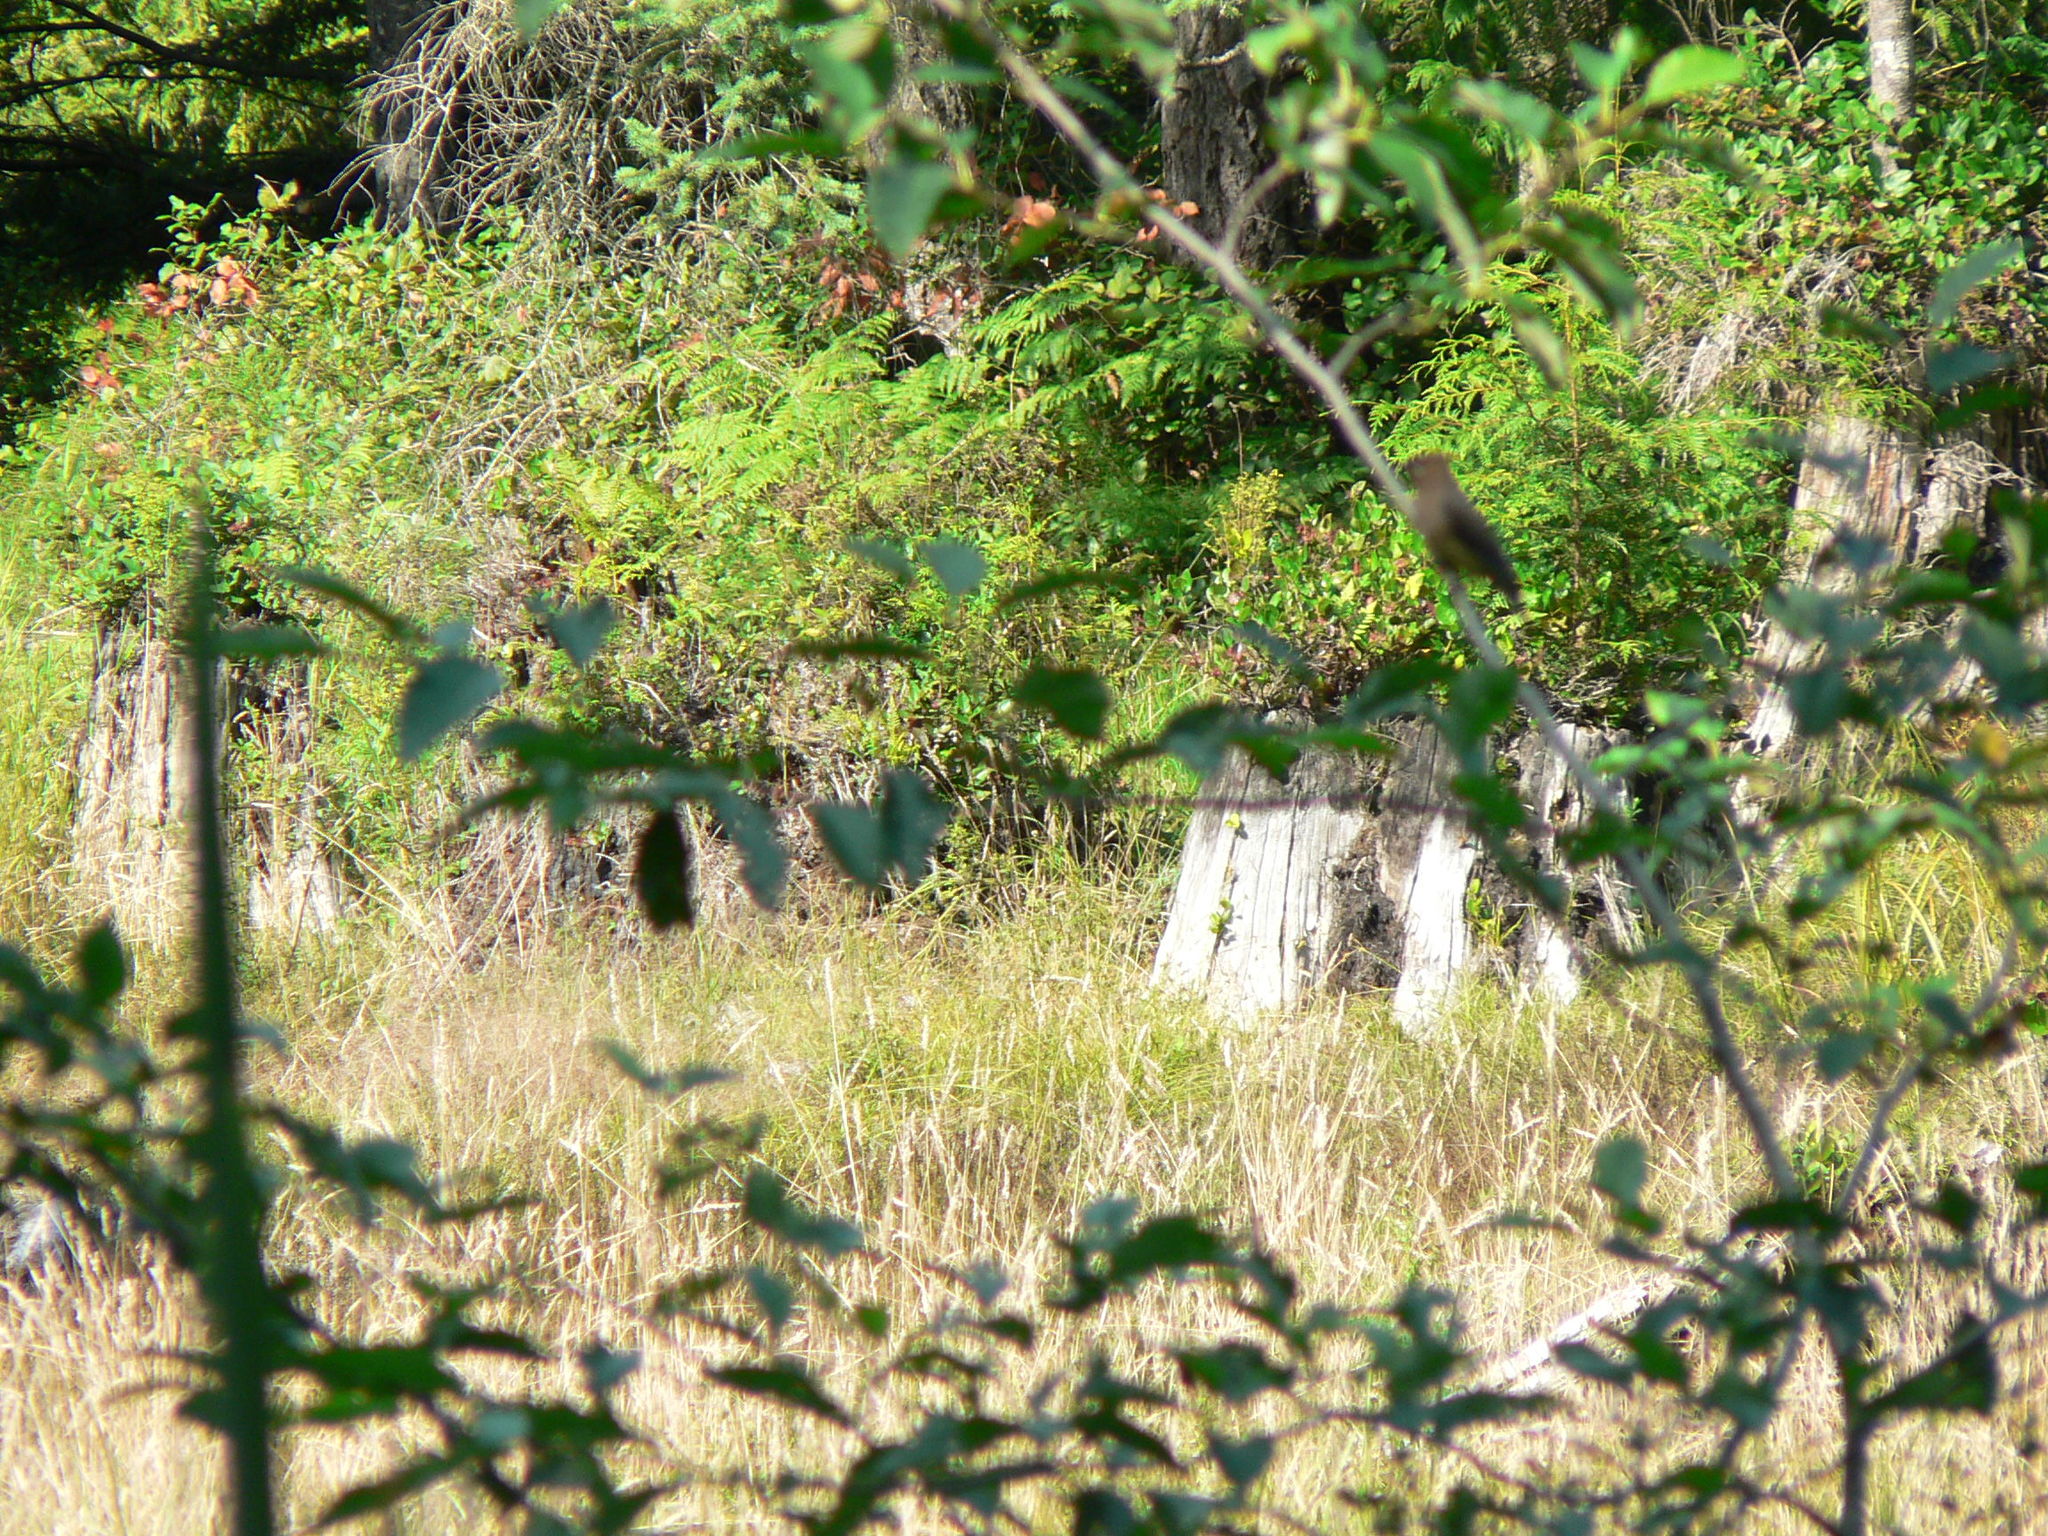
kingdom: Animalia
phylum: Chordata
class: Aves
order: Passeriformes
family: Bombycillidae
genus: Bombycilla
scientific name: Bombycilla cedrorum
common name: Cedar waxwing
